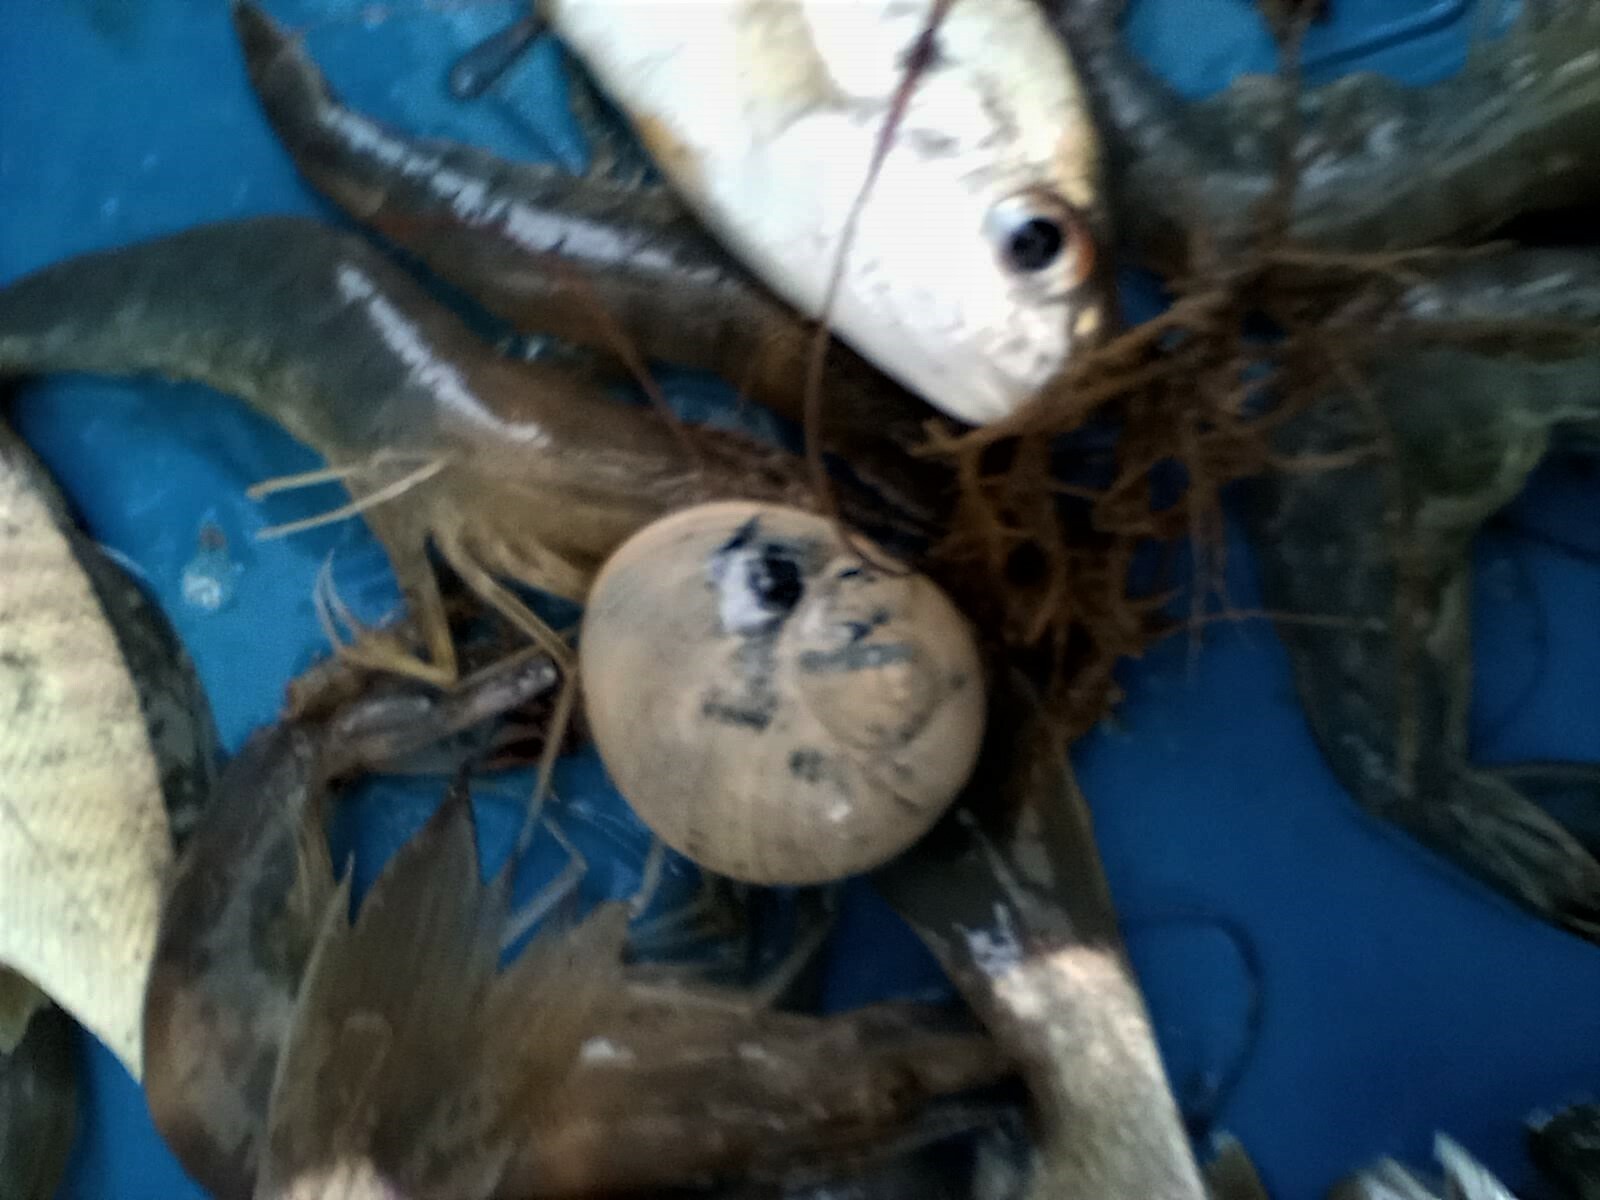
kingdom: Animalia
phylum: Mollusca
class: Gastropoda
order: Littorinimorpha
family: Naticidae
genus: Neverita
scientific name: Neverita delessertiana
